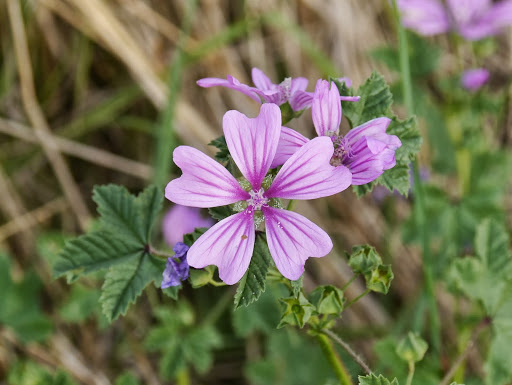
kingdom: Plantae
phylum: Tracheophyta
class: Magnoliopsida
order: Malvales
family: Malvaceae
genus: Malva
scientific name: Malva sylvestris
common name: Common mallow
